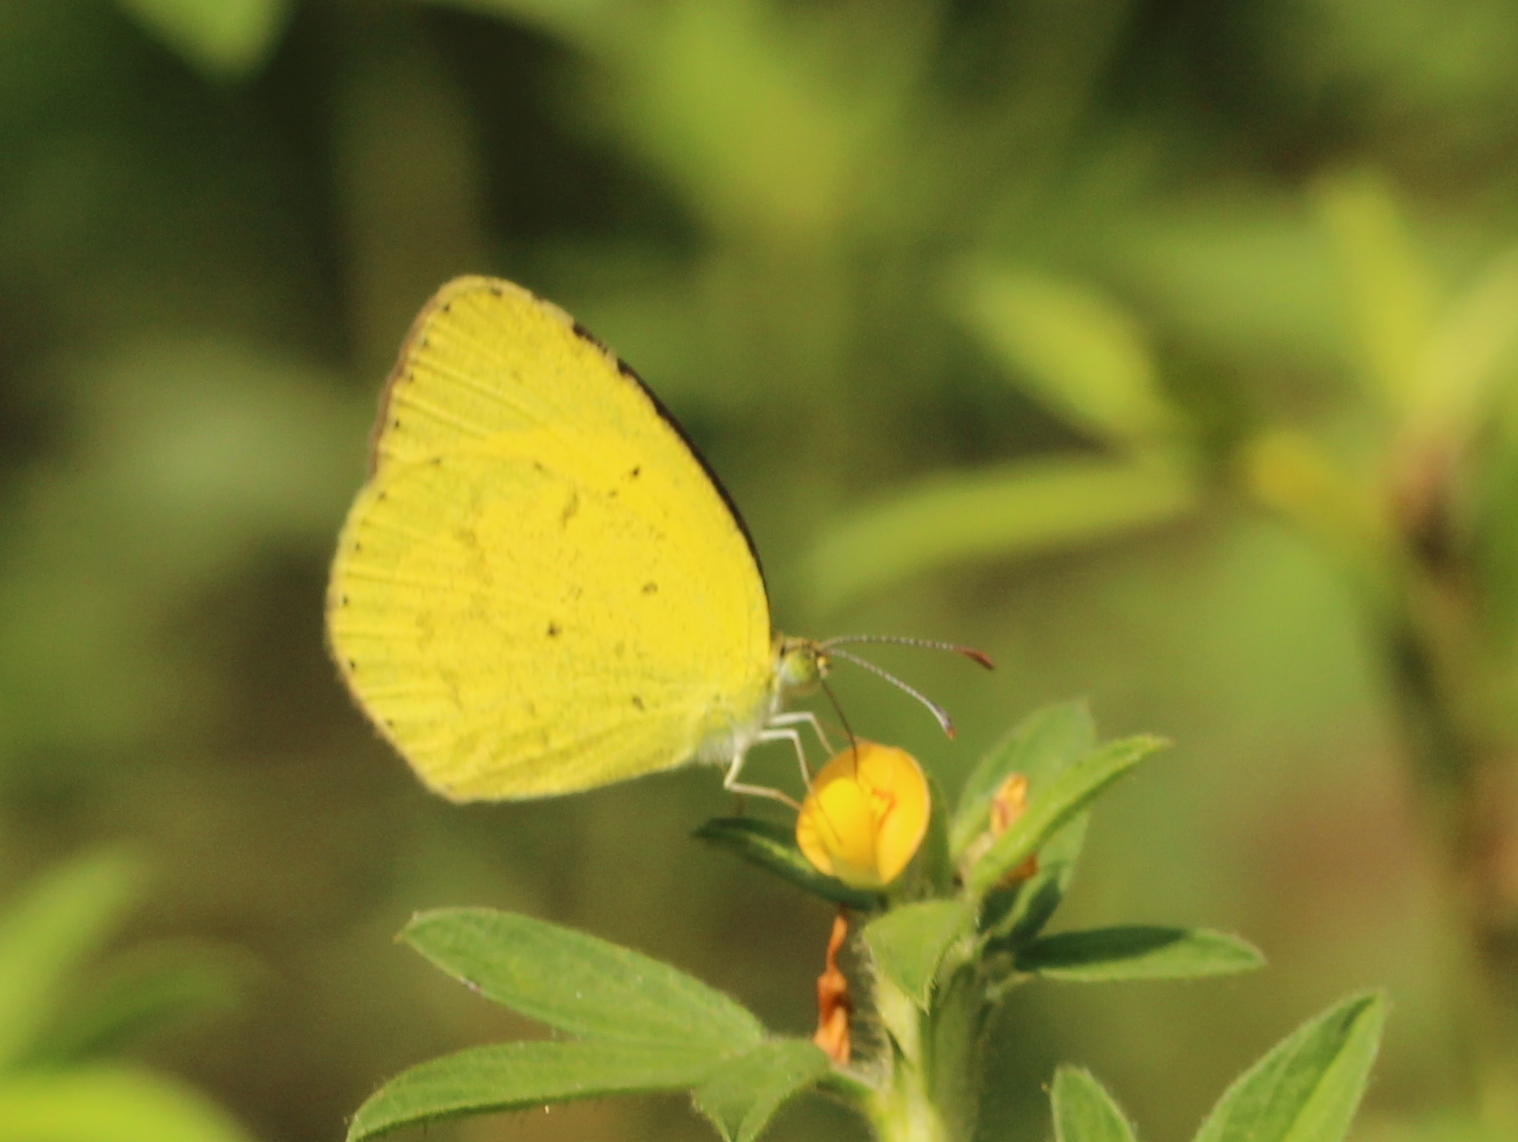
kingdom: Animalia
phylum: Arthropoda
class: Insecta
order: Lepidoptera
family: Pieridae
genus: Eurema
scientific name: Eurema brigitta
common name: Small grass yellow
